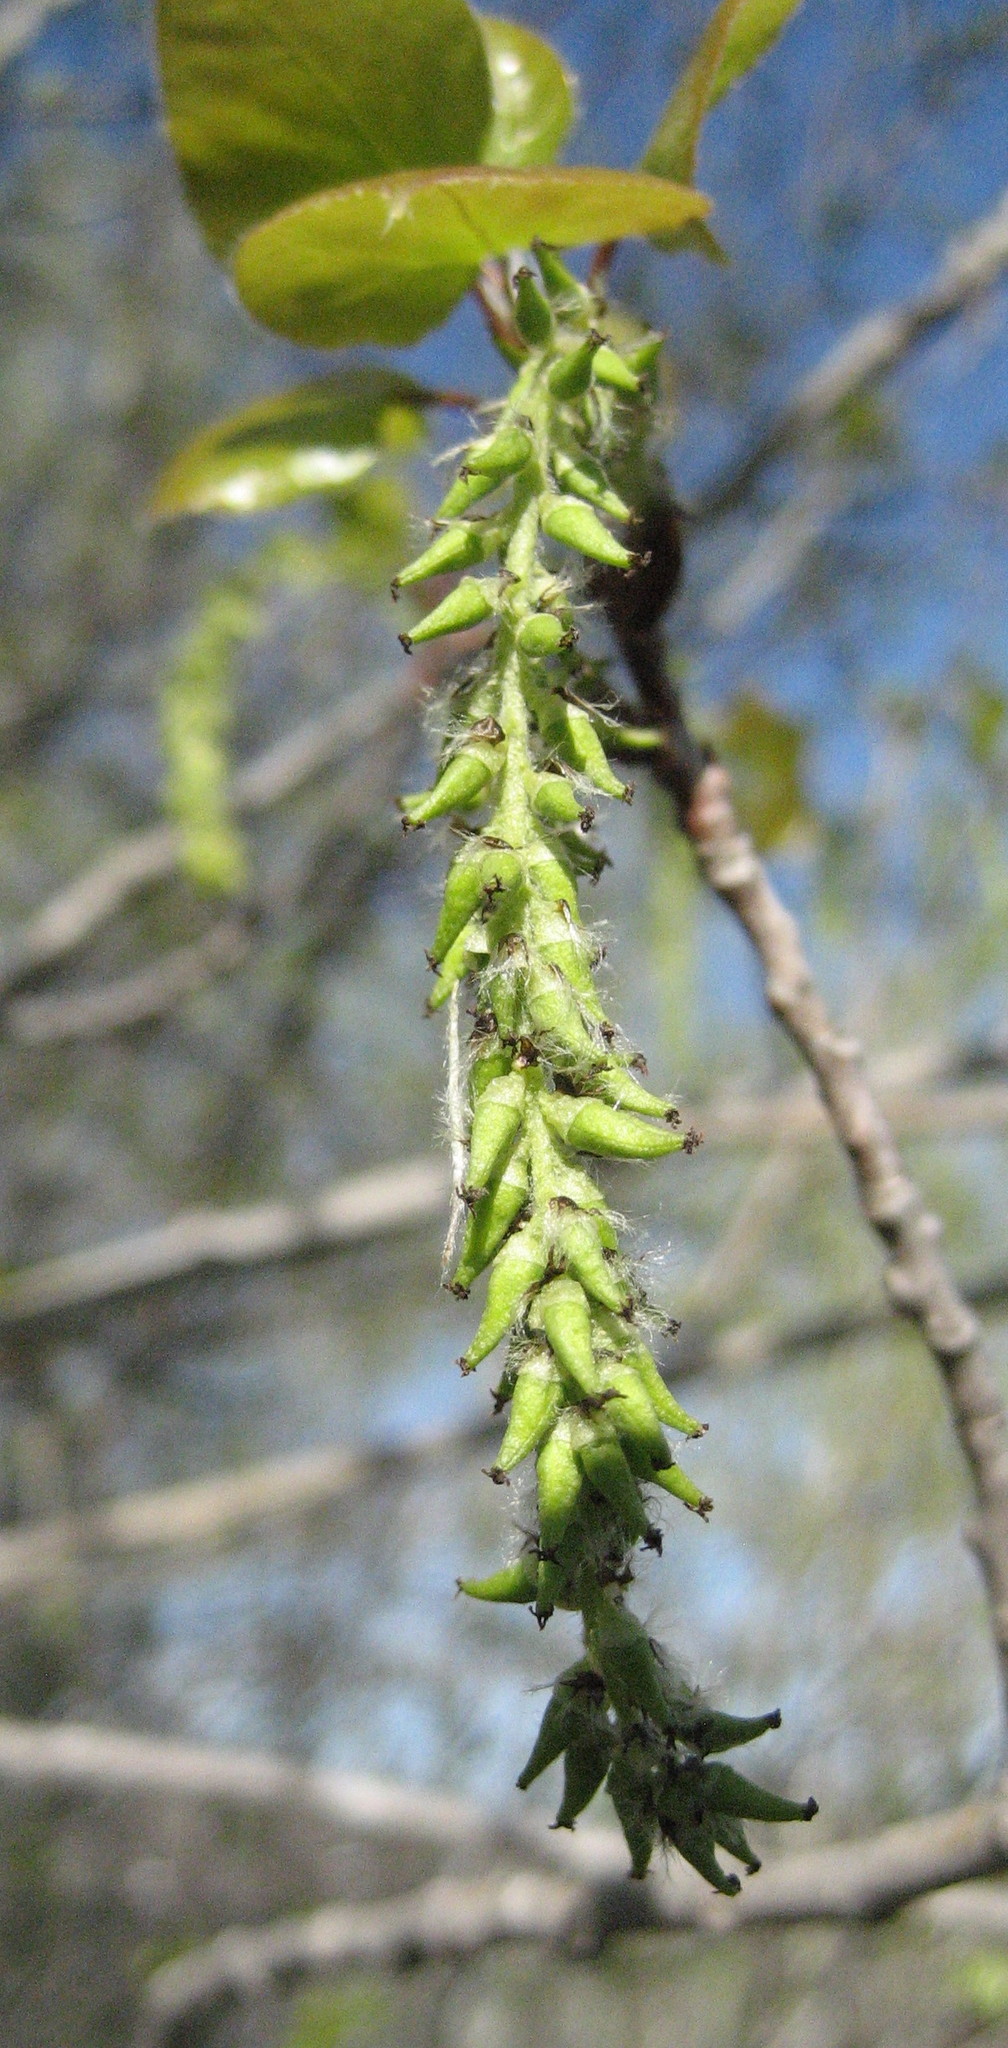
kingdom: Plantae
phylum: Tracheophyta
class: Magnoliopsida
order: Malpighiales
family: Salicaceae
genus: Populus
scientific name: Populus tremuloides
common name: Quaking aspen
